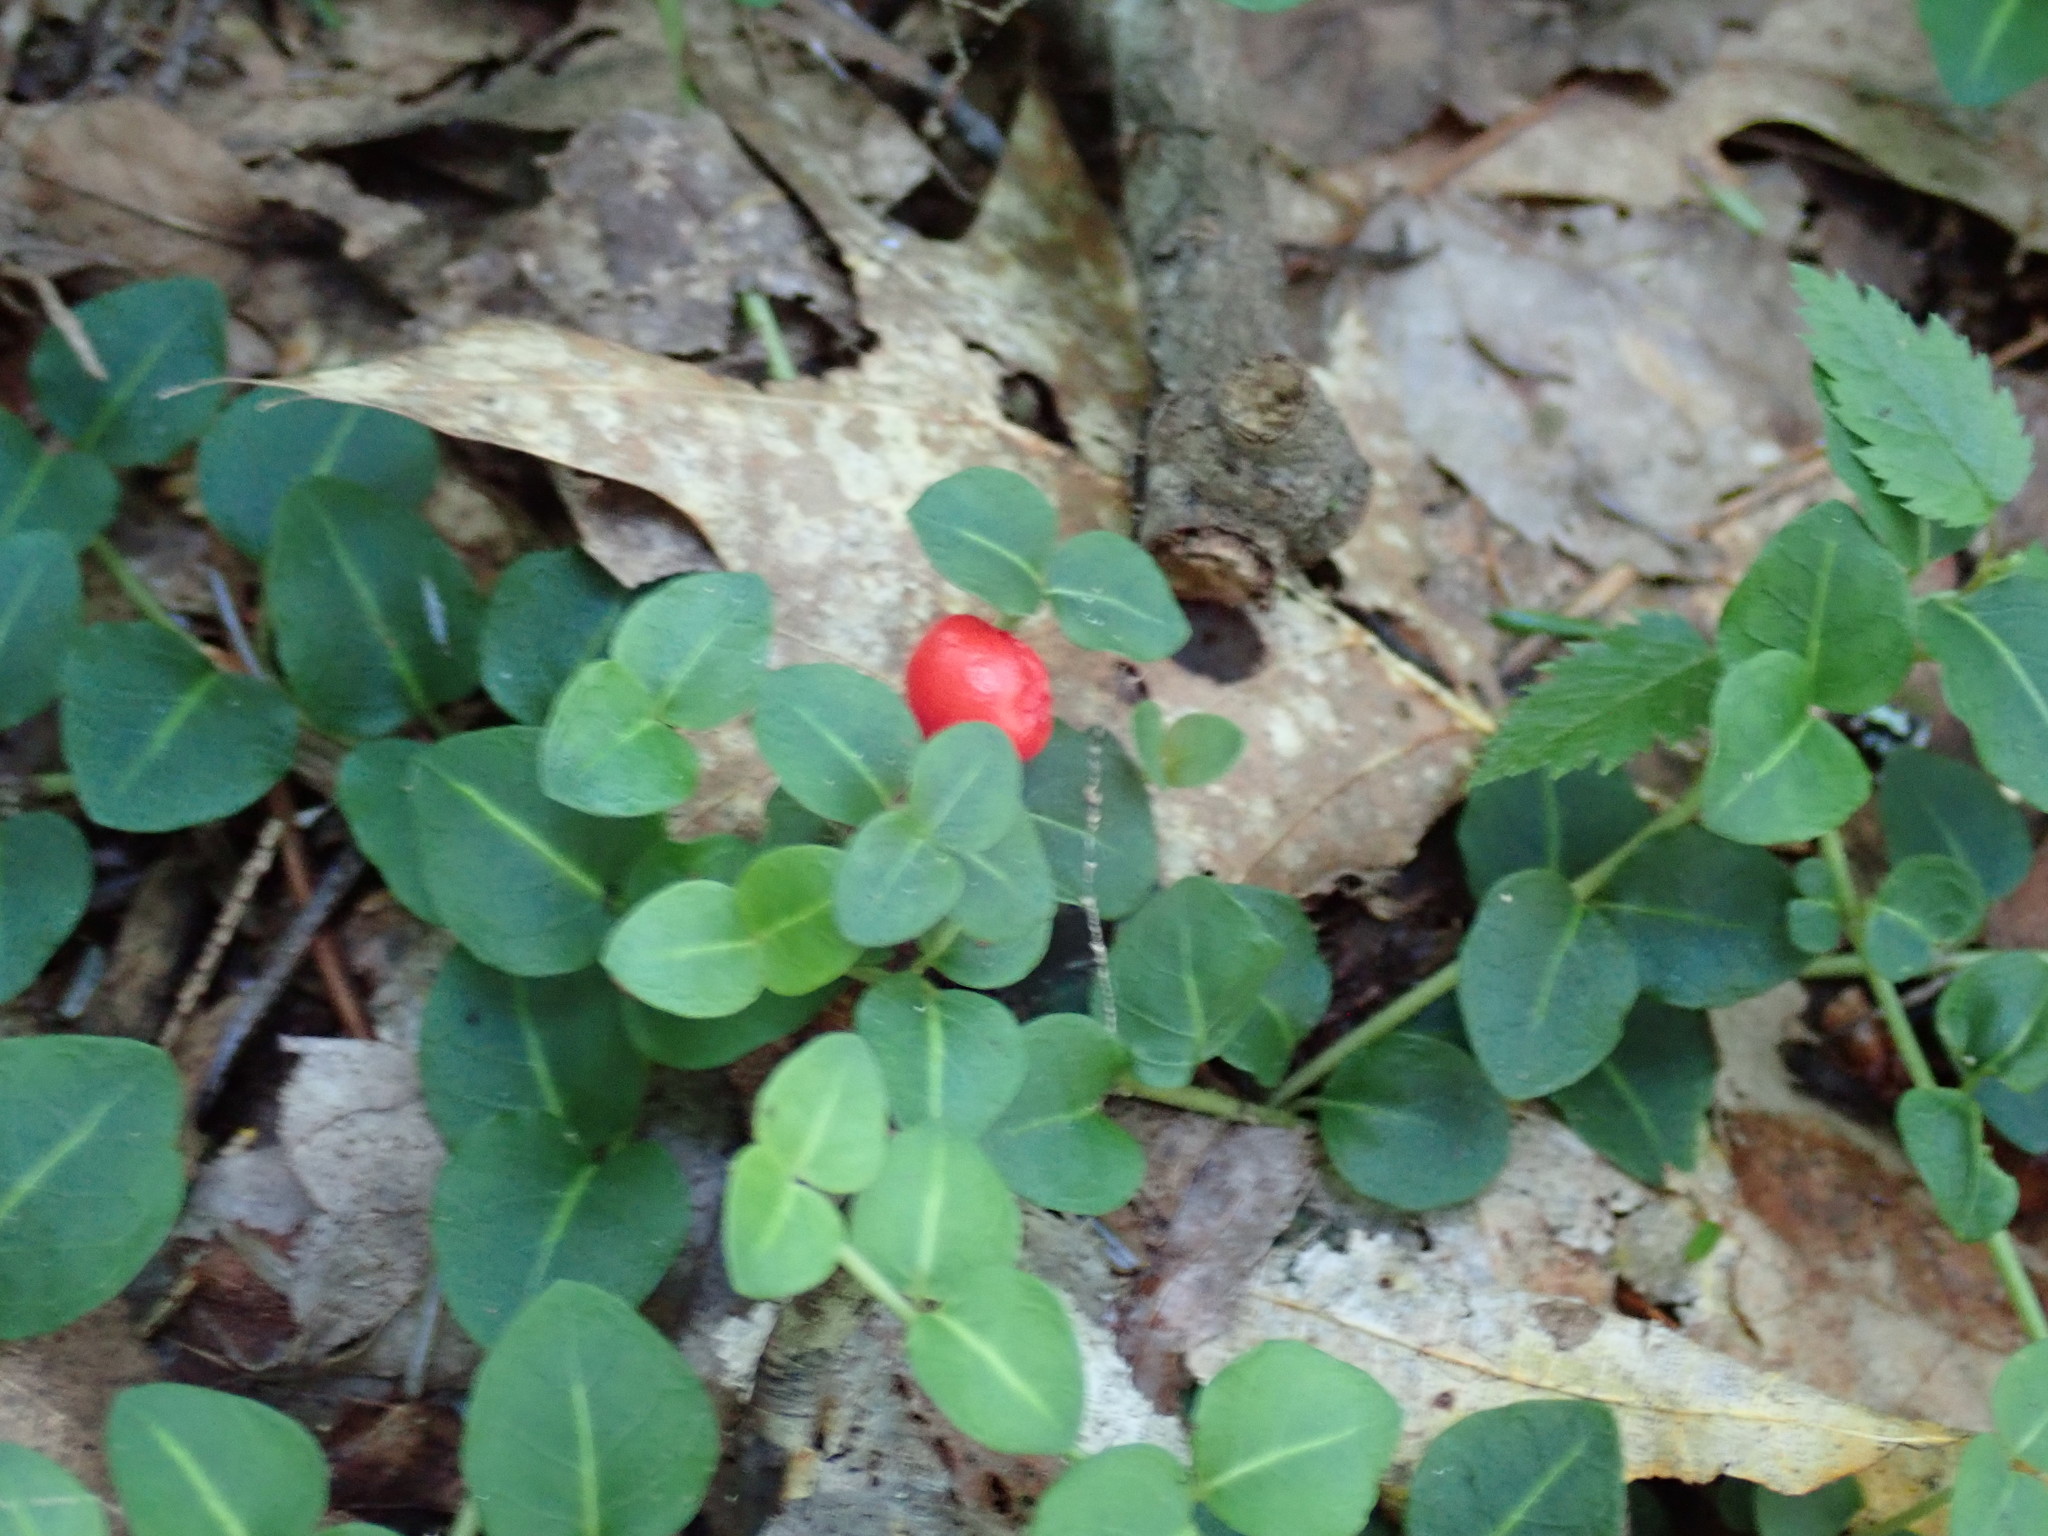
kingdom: Plantae
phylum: Tracheophyta
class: Magnoliopsida
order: Gentianales
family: Rubiaceae
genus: Mitchella
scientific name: Mitchella repens
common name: Partridge-berry
